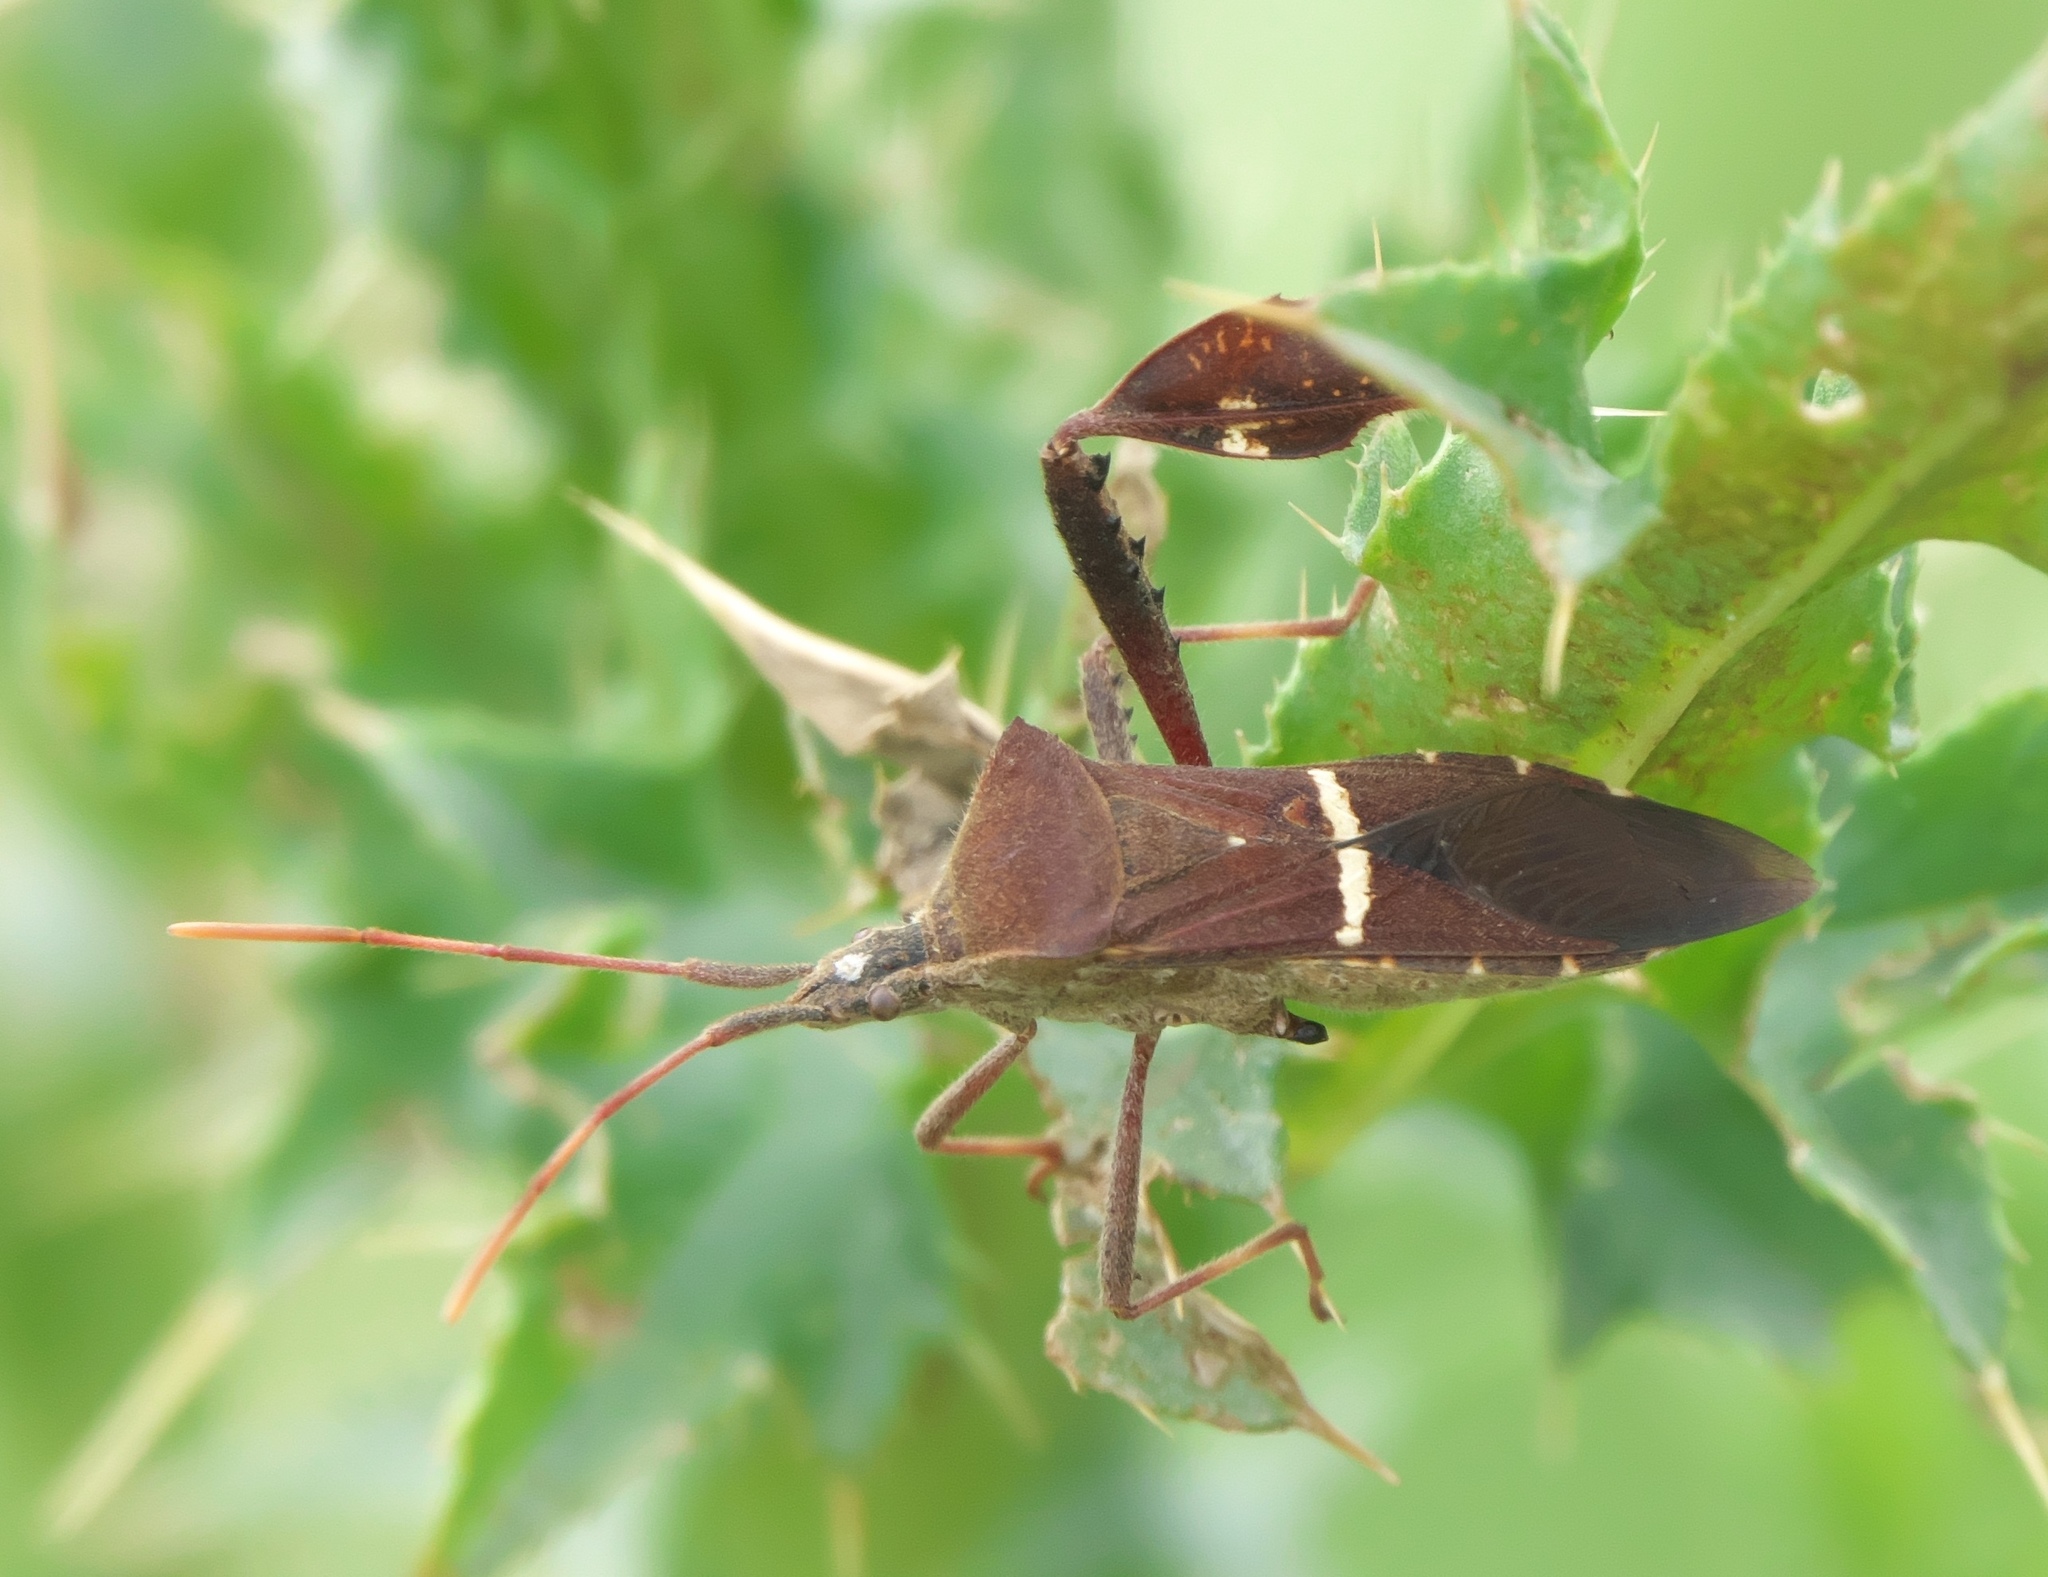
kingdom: Animalia
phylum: Arthropoda
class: Insecta
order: Hemiptera
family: Coreidae
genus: Leptoglossus
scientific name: Leptoglossus phyllopus
